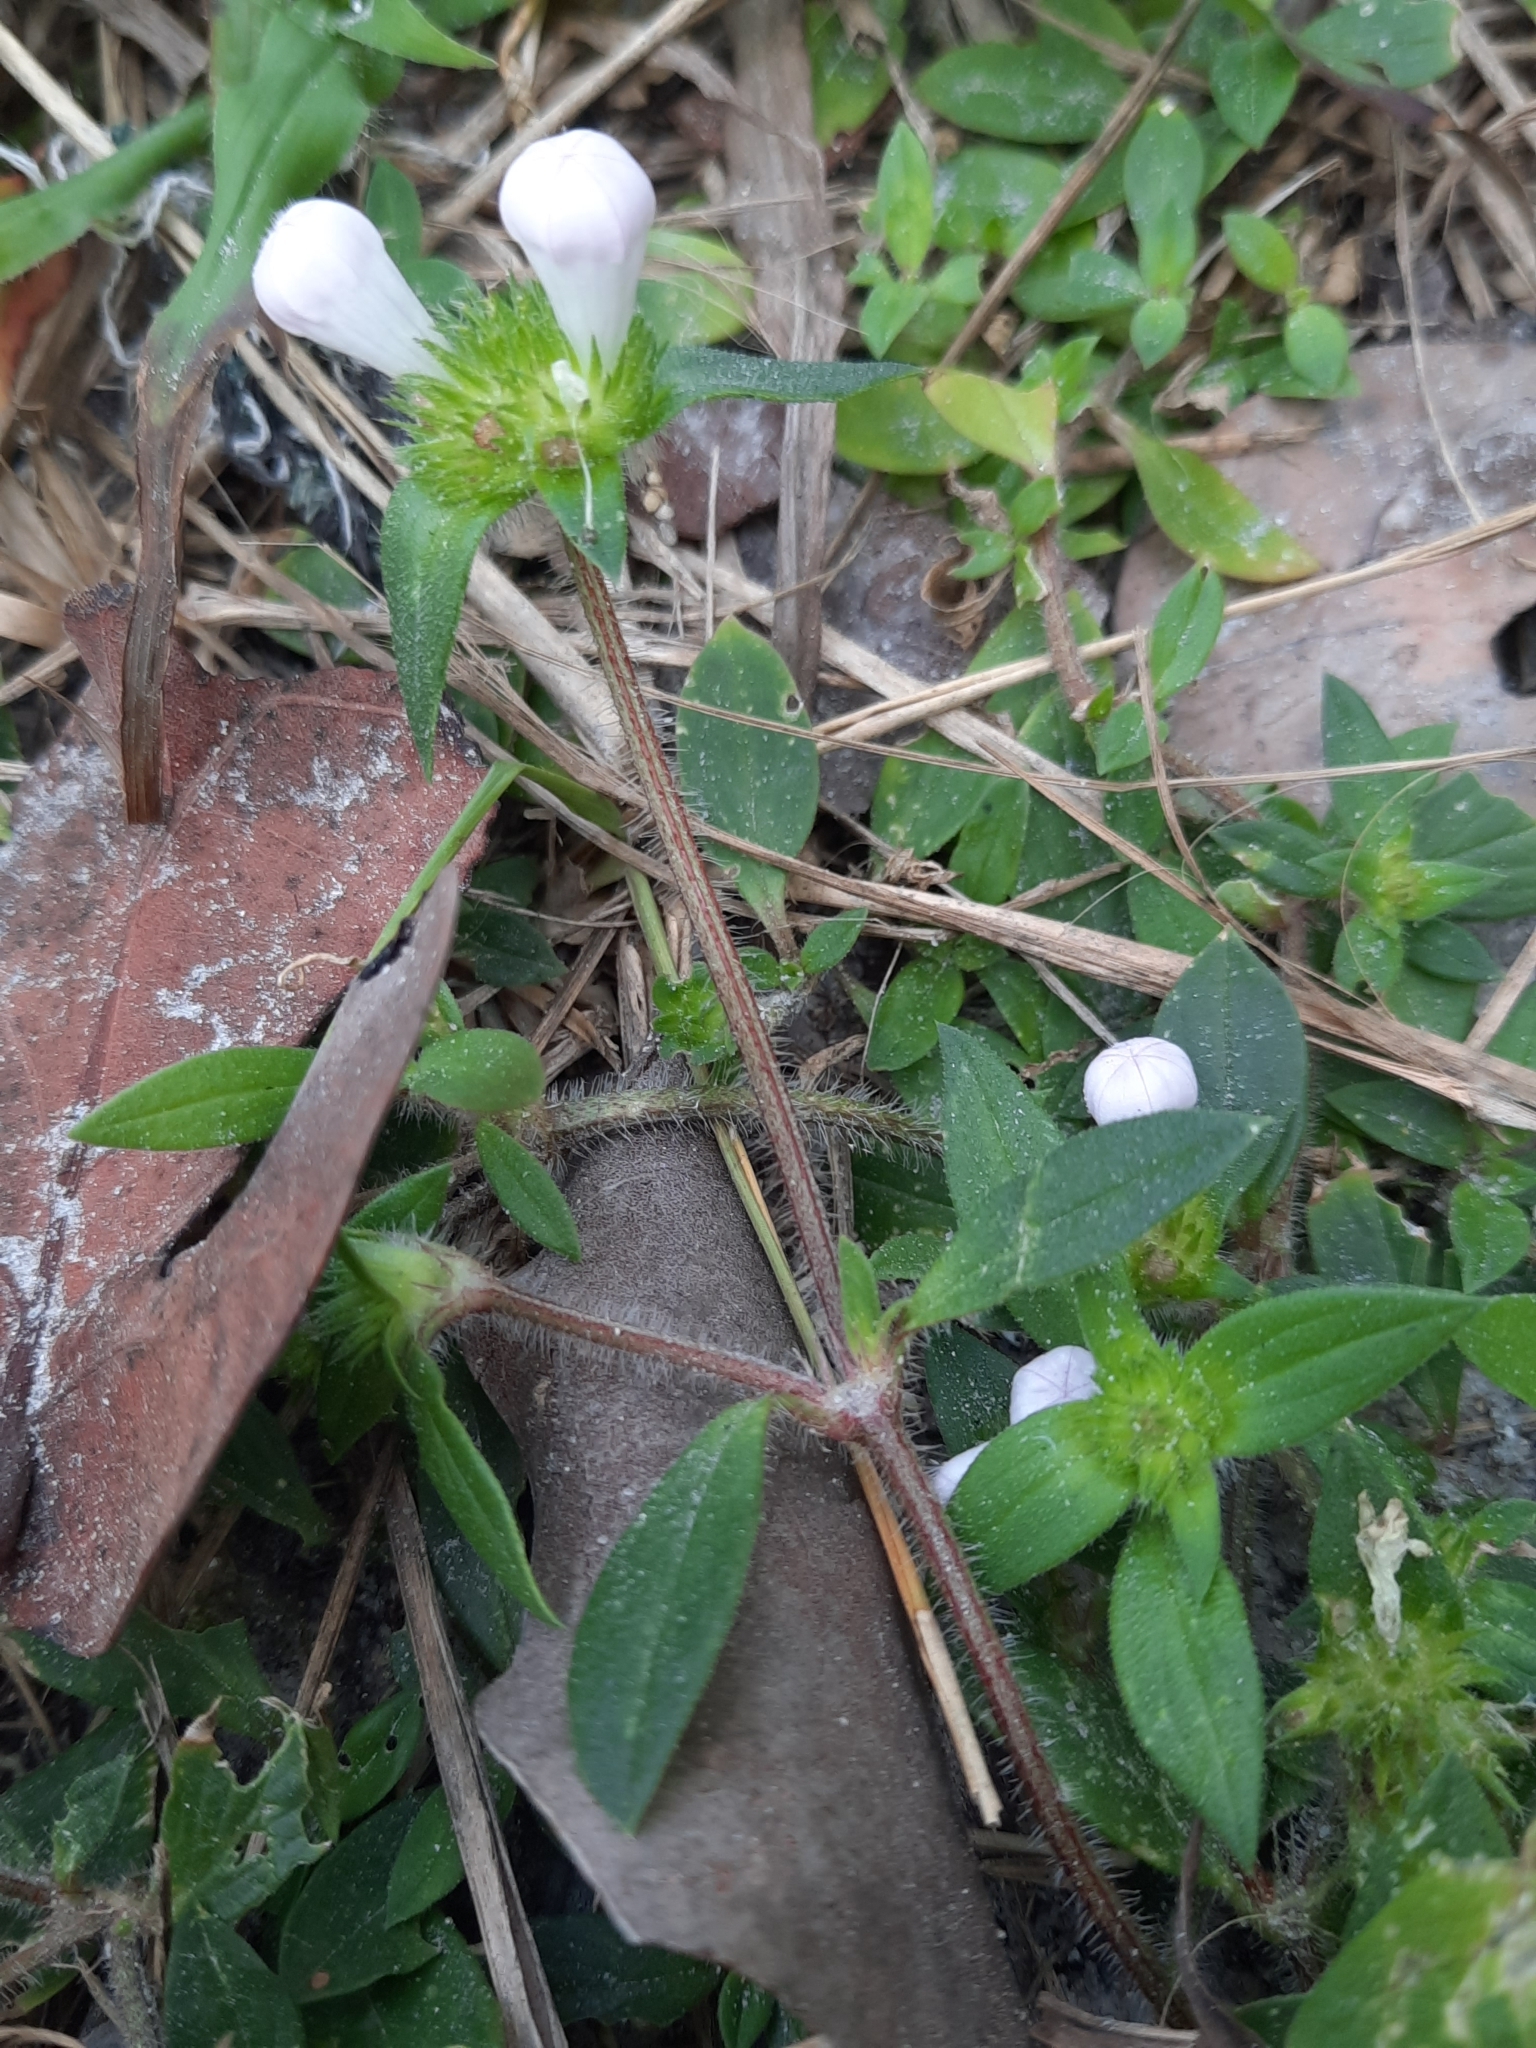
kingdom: Plantae
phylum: Tracheophyta
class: Magnoliopsida
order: Gentianales
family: Rubiaceae
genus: Richardia
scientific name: Richardia grandiflora
